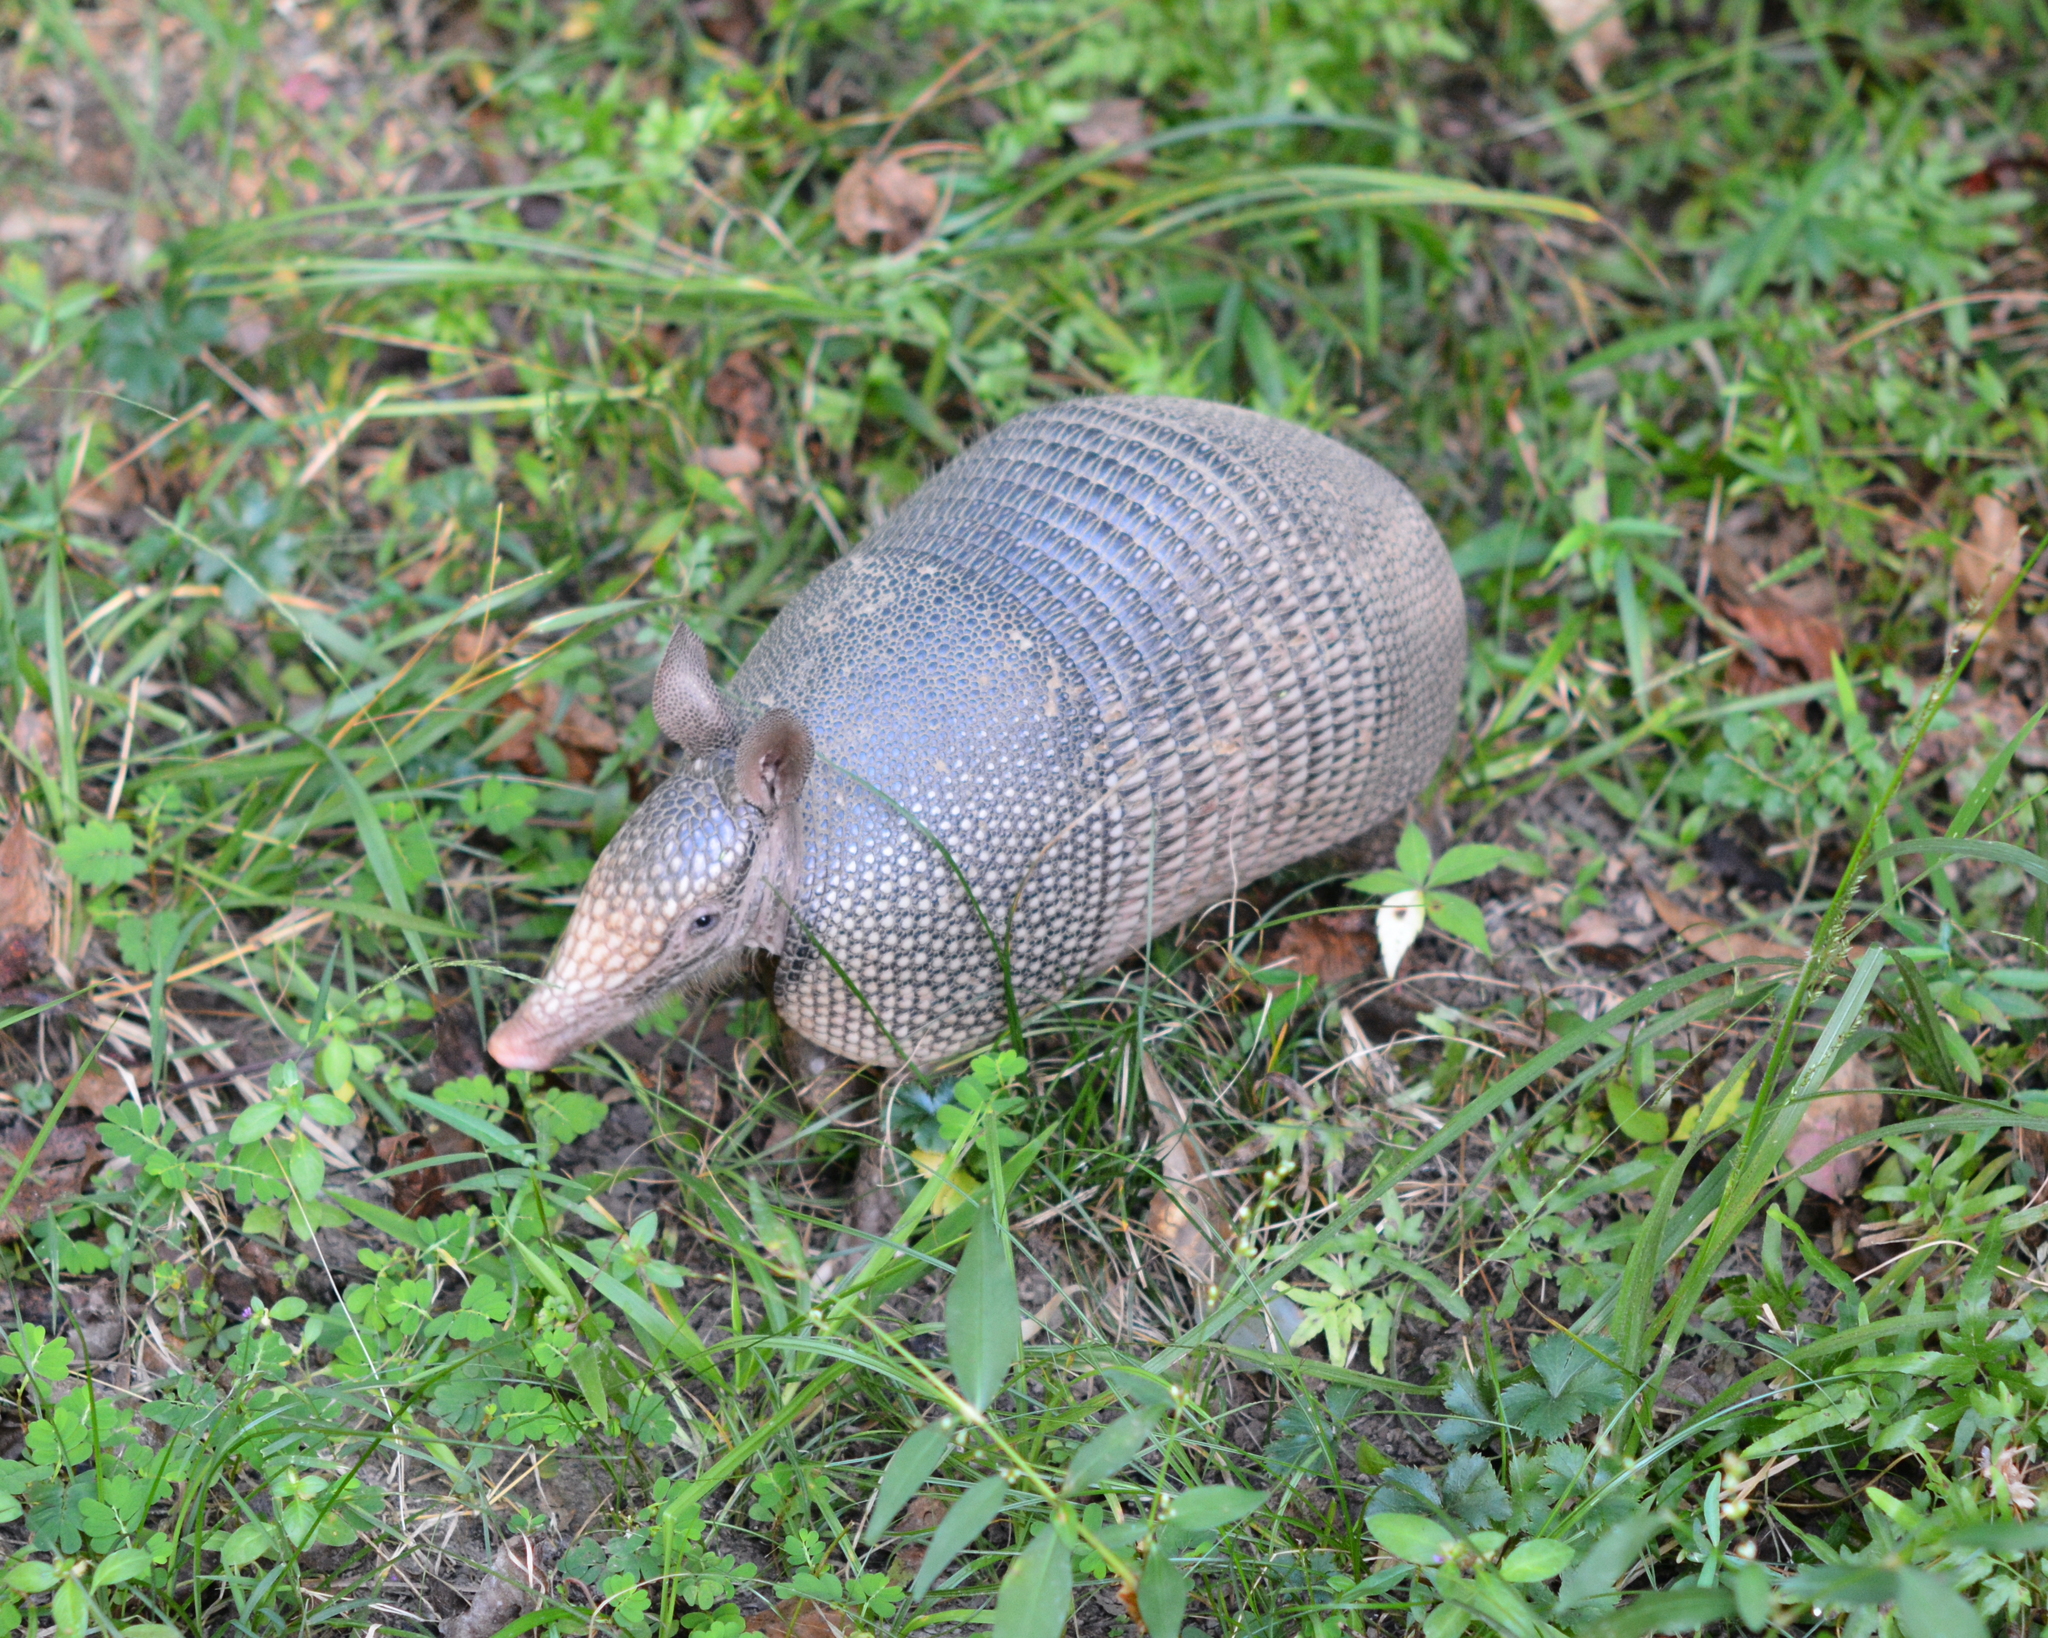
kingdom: Animalia
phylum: Chordata
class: Mammalia
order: Cingulata
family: Dasypodidae
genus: Dasypus
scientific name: Dasypus novemcinctus
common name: Nine-banded armadillo
